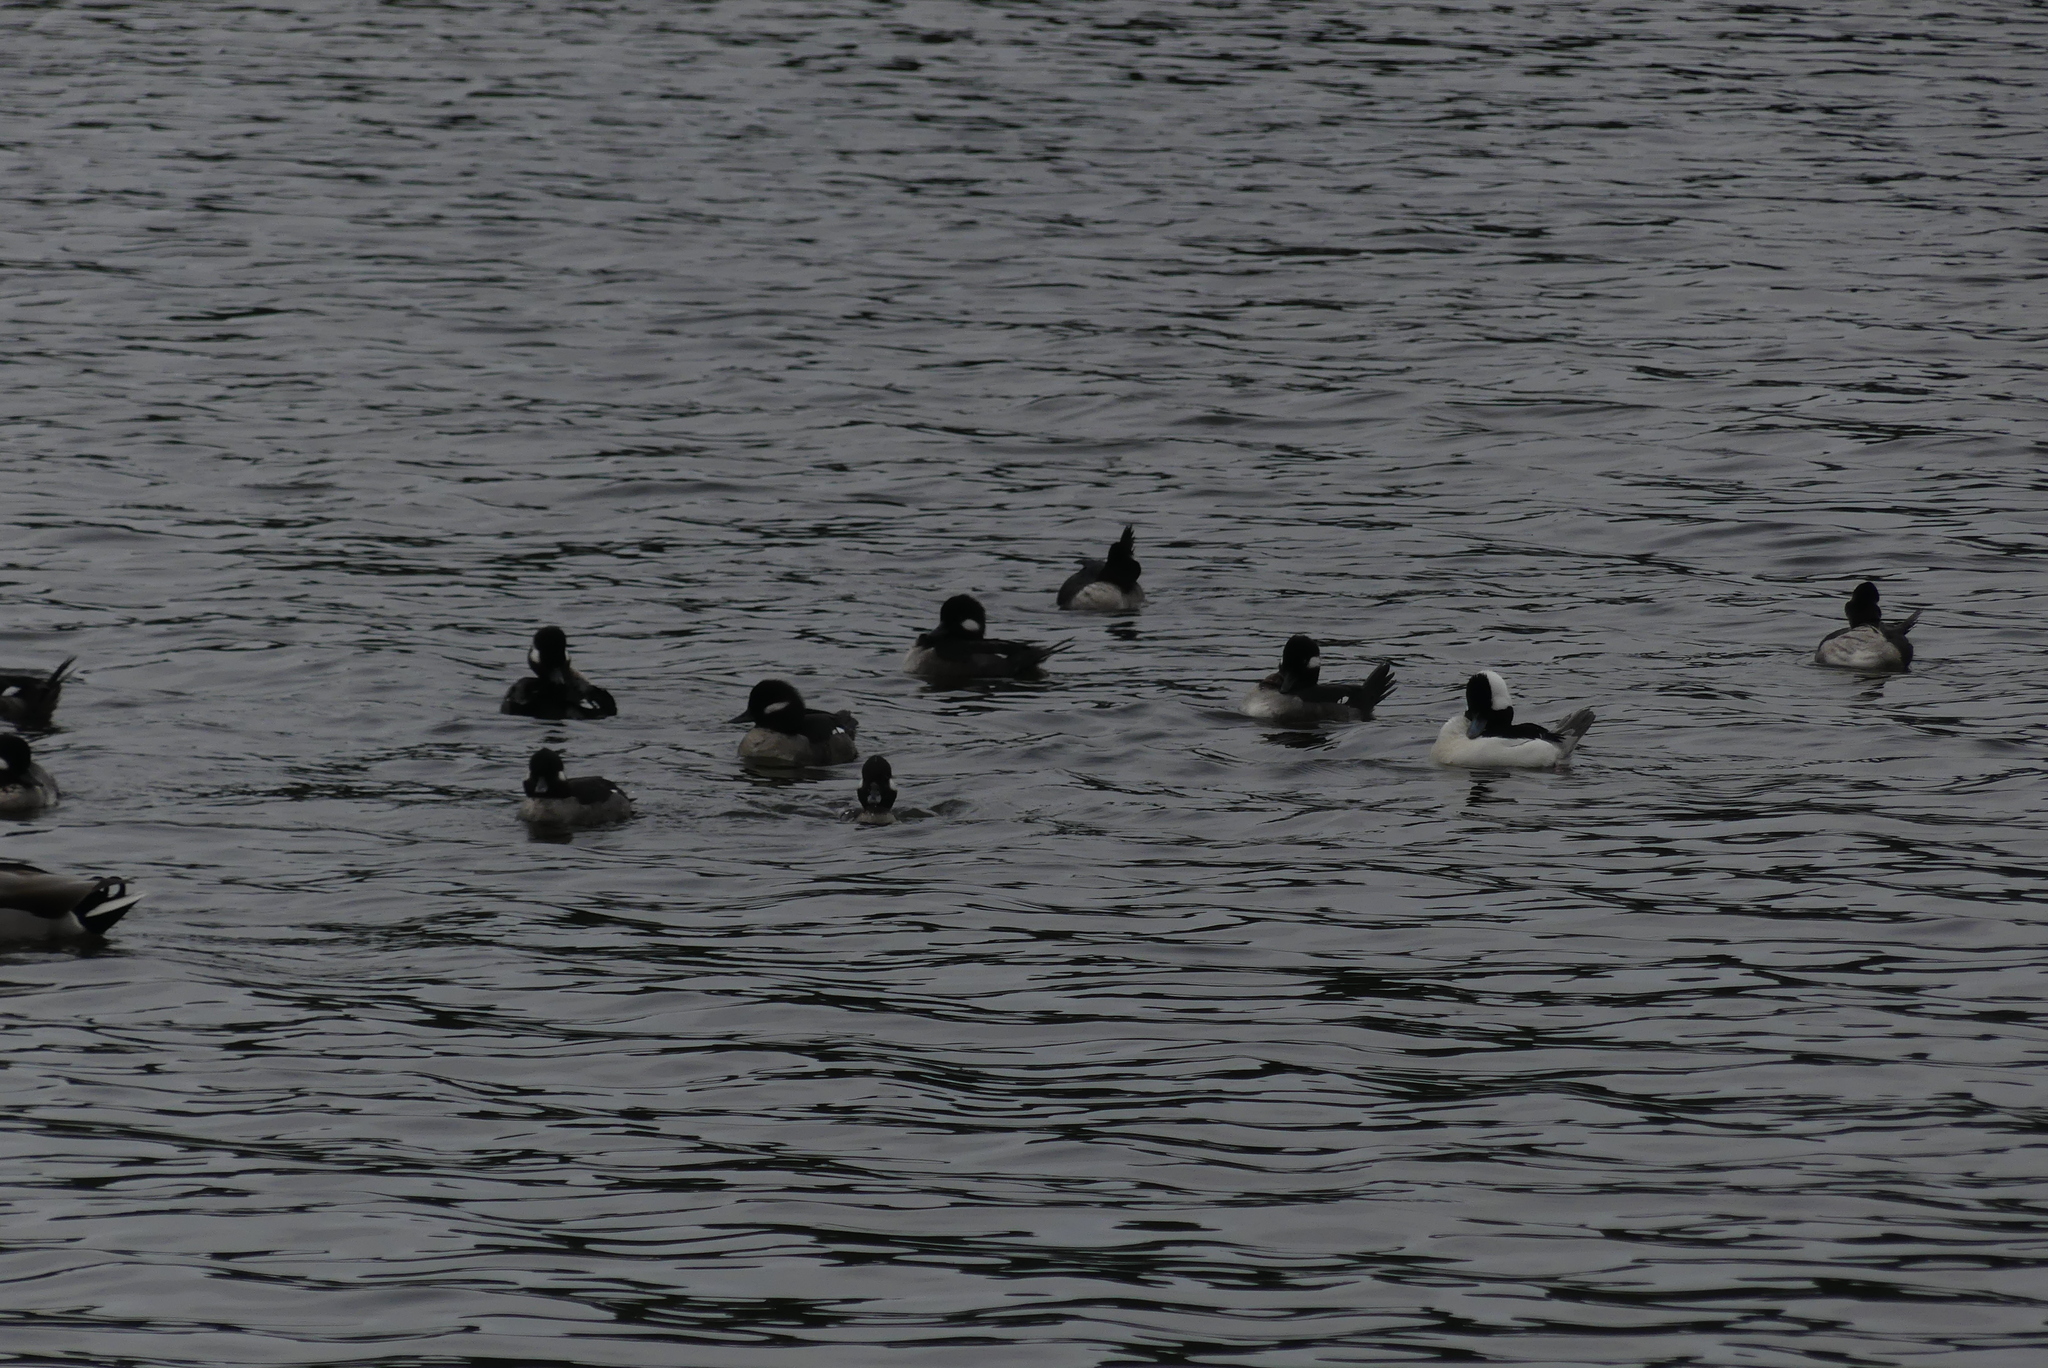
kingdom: Animalia
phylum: Chordata
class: Aves
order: Anseriformes
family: Anatidae
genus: Bucephala
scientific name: Bucephala albeola
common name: Bufflehead
